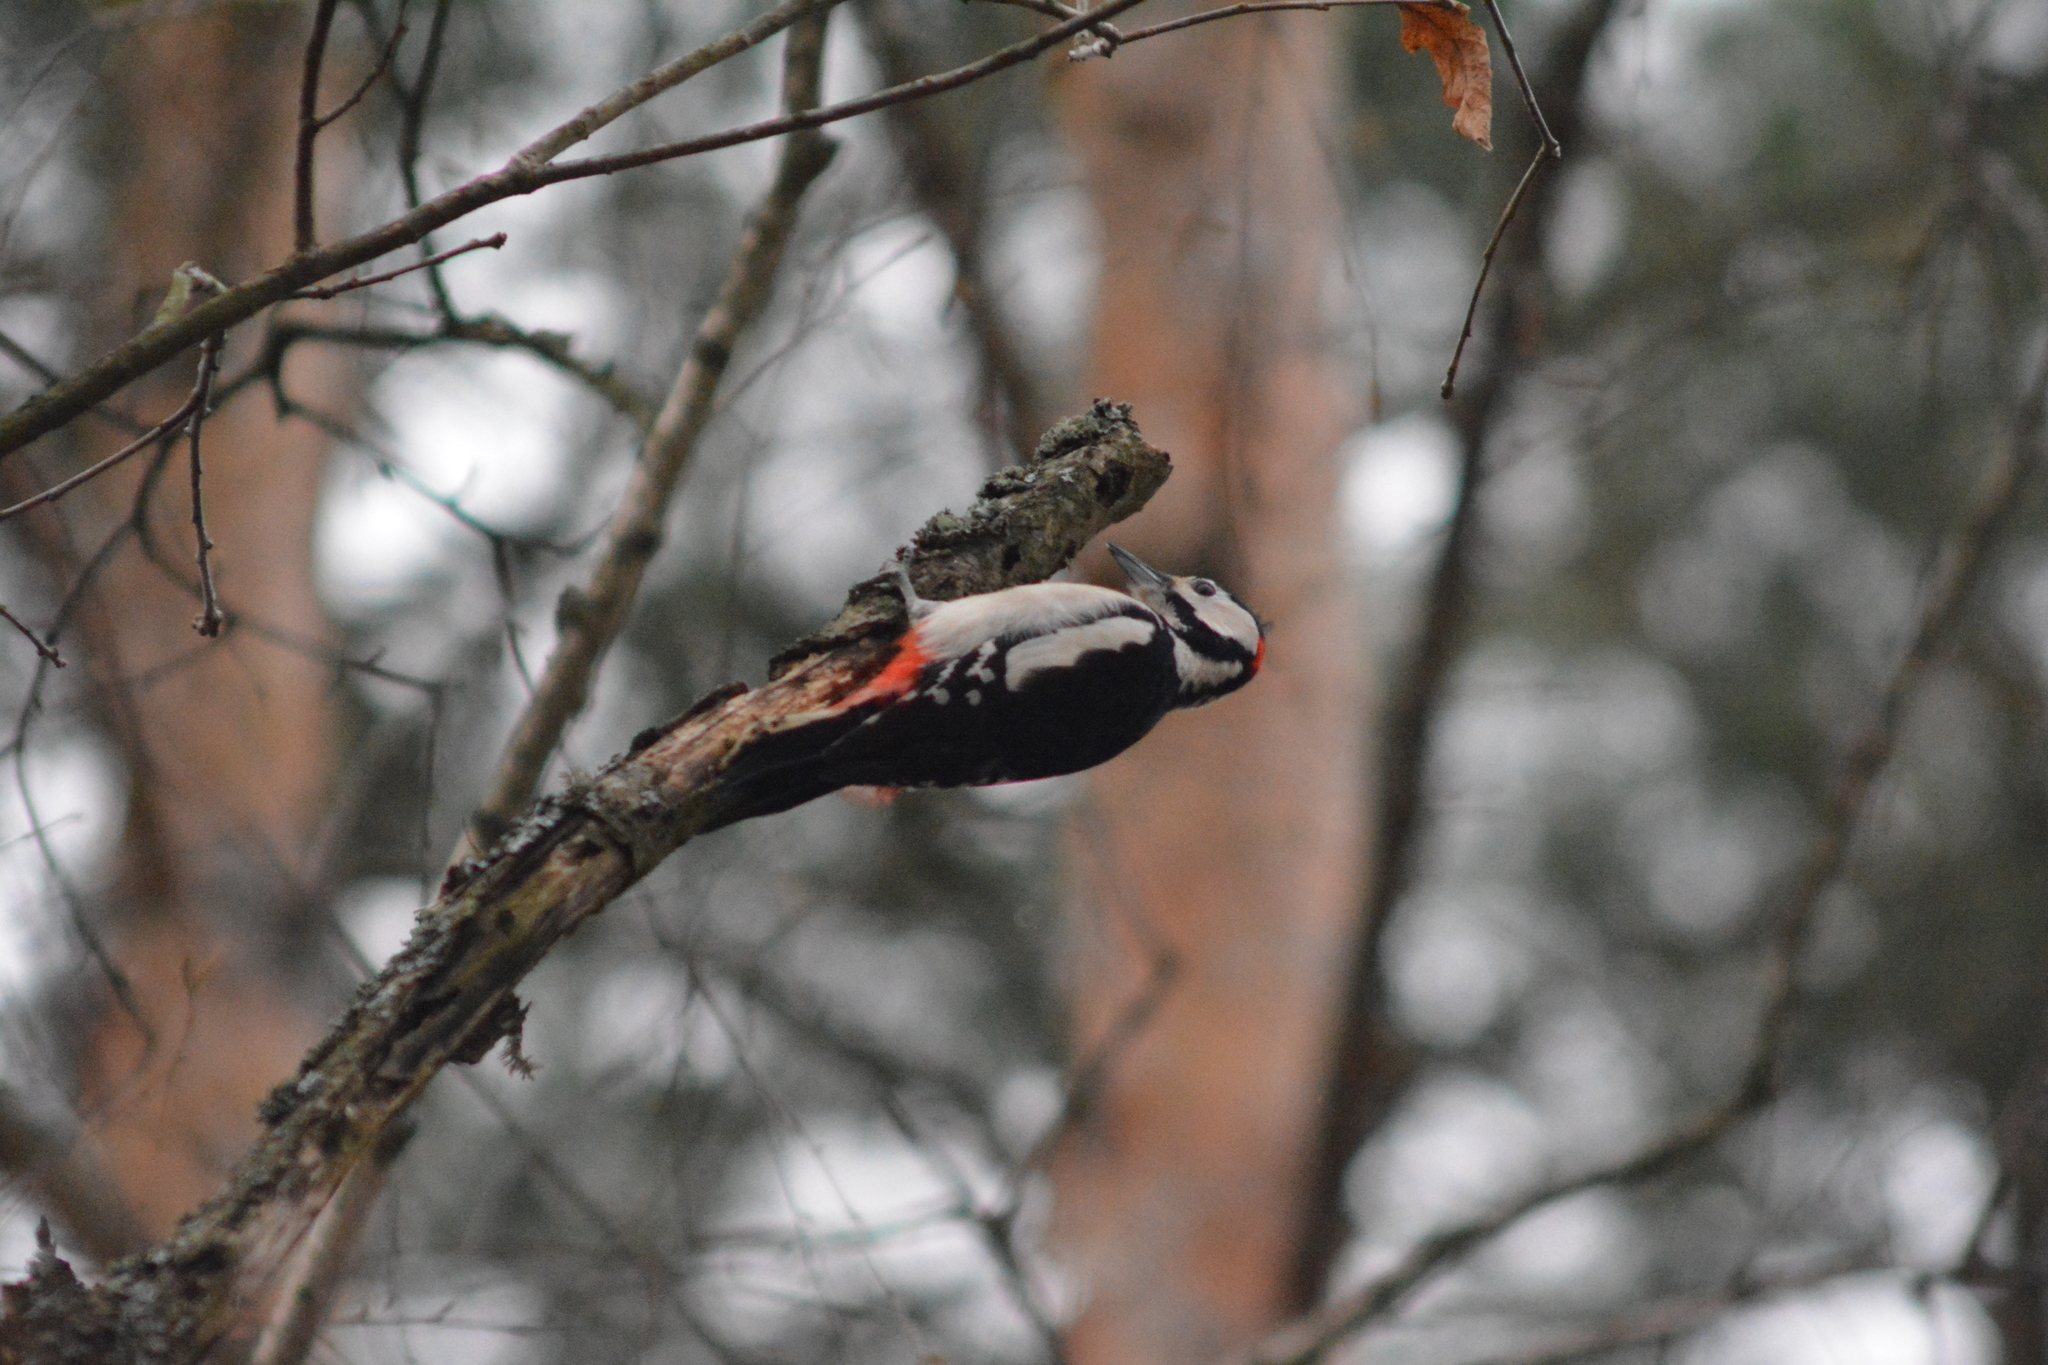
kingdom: Animalia
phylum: Chordata
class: Aves
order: Piciformes
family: Picidae
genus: Dendrocopos
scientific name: Dendrocopos major
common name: Great spotted woodpecker
